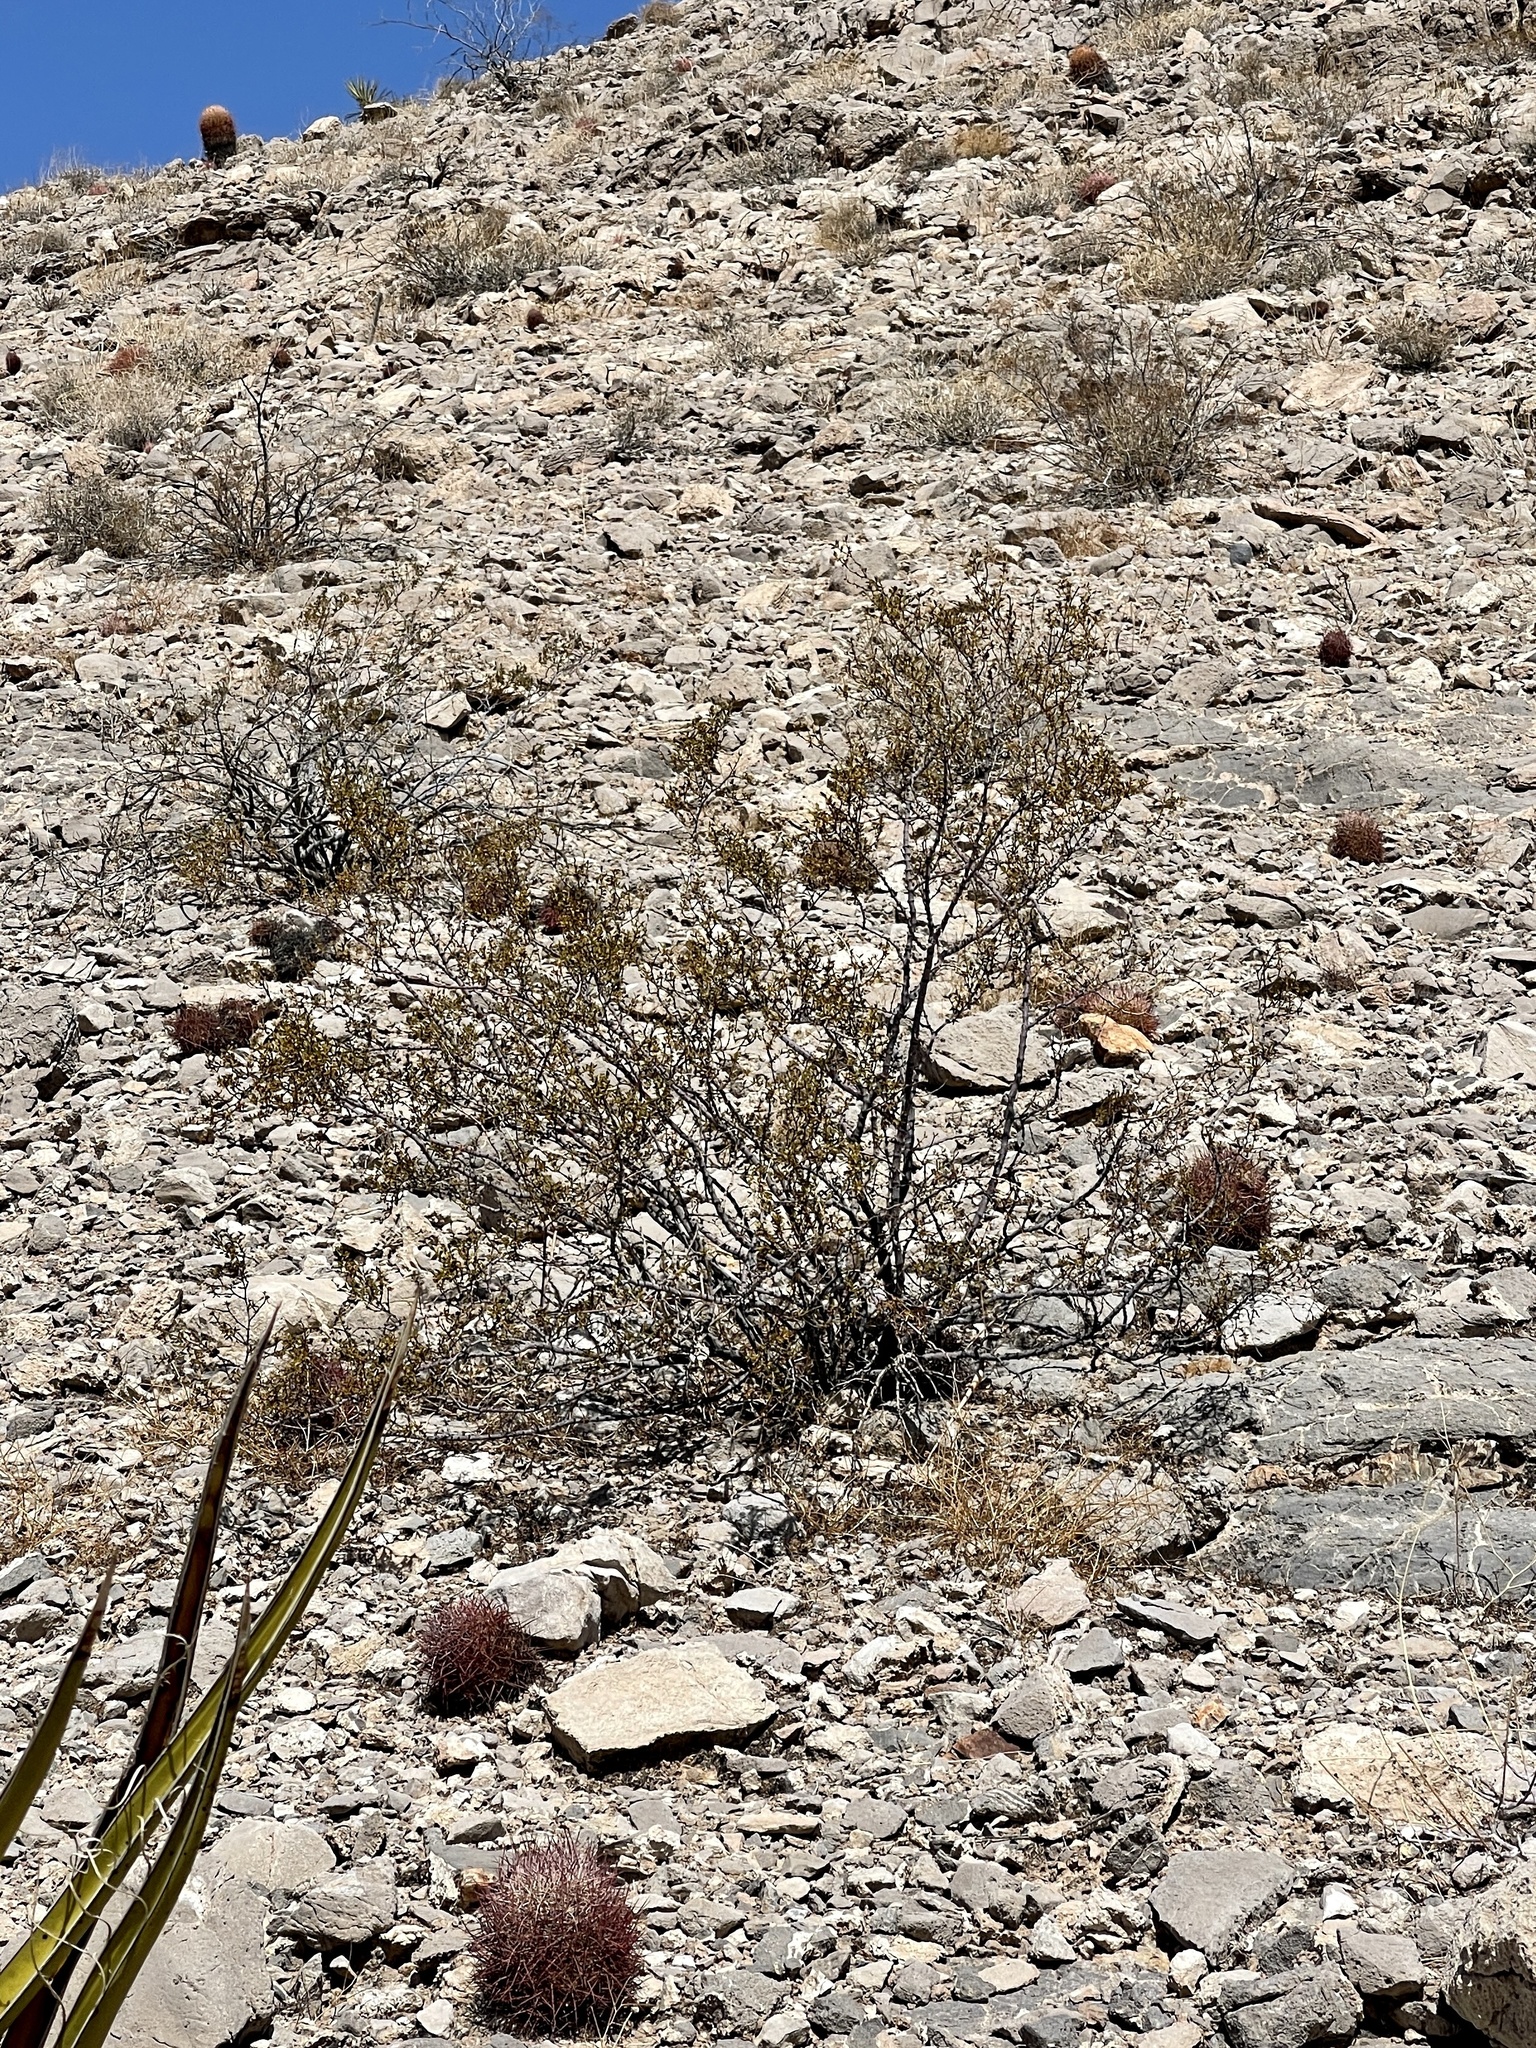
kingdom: Plantae
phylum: Tracheophyta
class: Magnoliopsida
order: Zygophyllales
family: Zygophyllaceae
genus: Larrea
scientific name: Larrea tridentata
